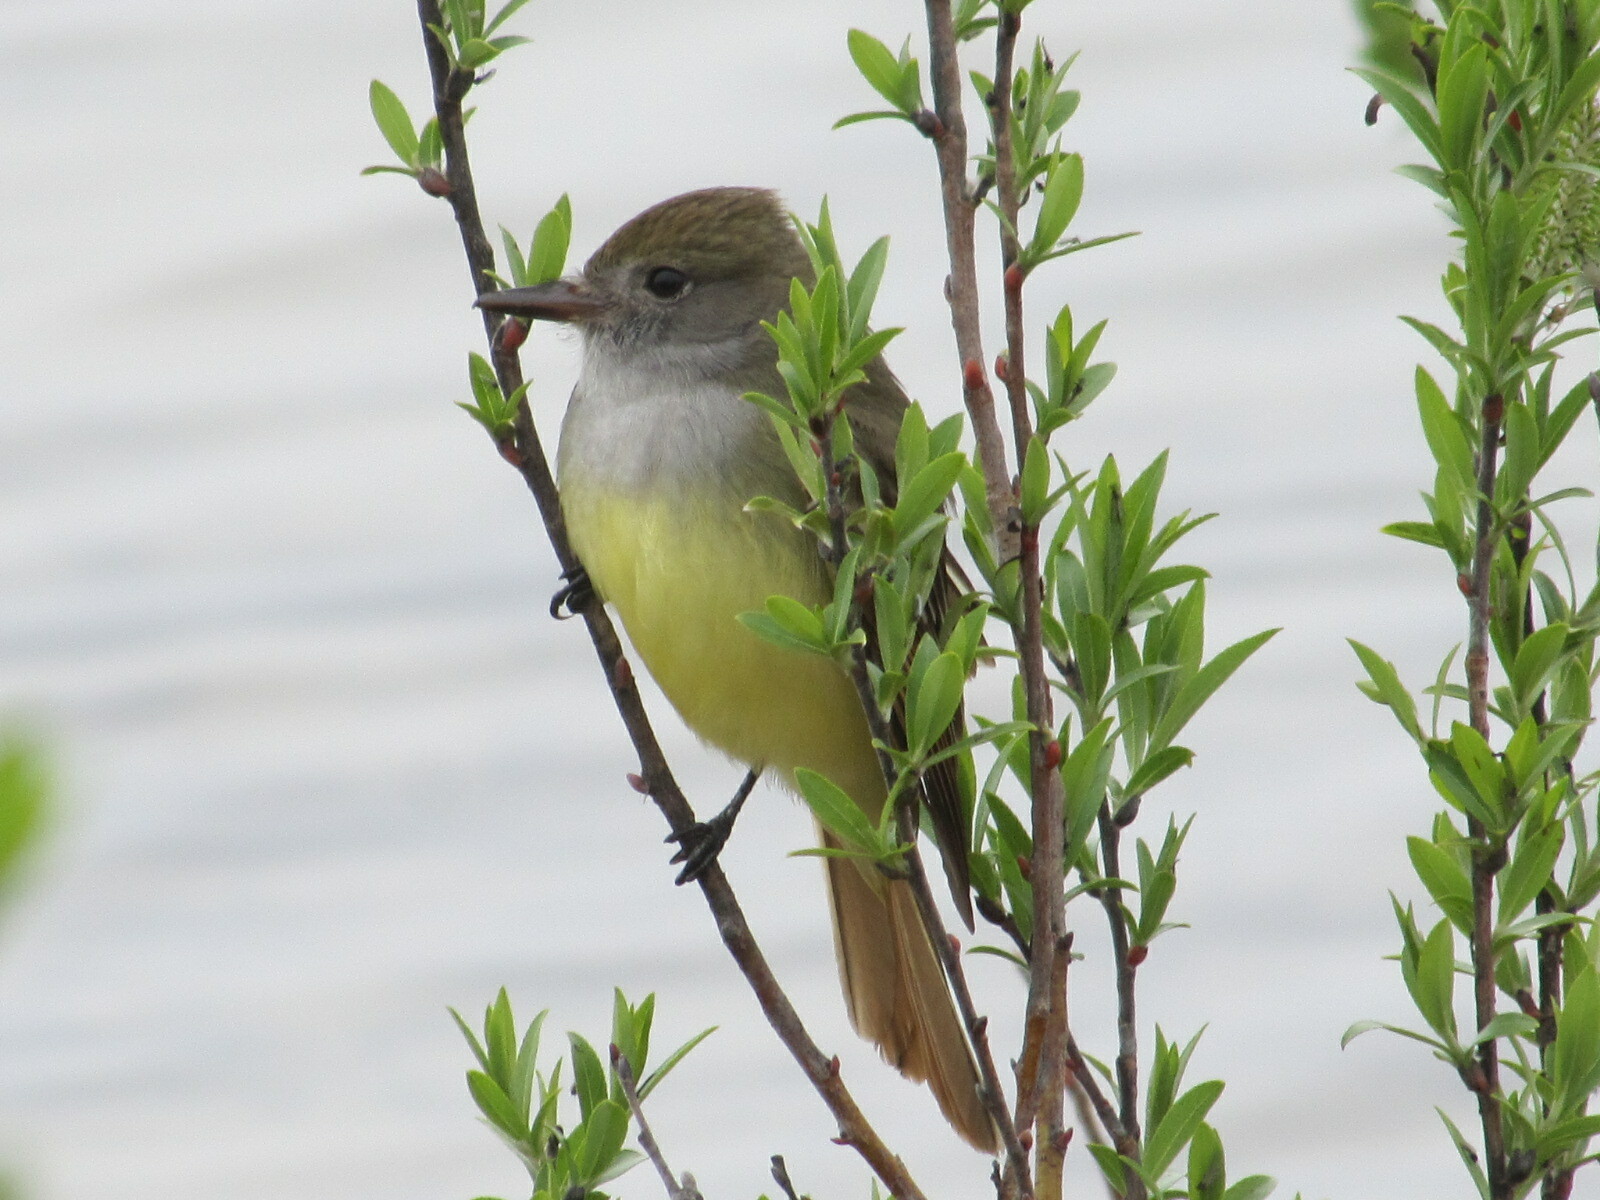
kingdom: Animalia
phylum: Chordata
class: Aves
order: Passeriformes
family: Tyrannidae
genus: Myiarchus
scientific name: Myiarchus crinitus
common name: Great crested flycatcher
